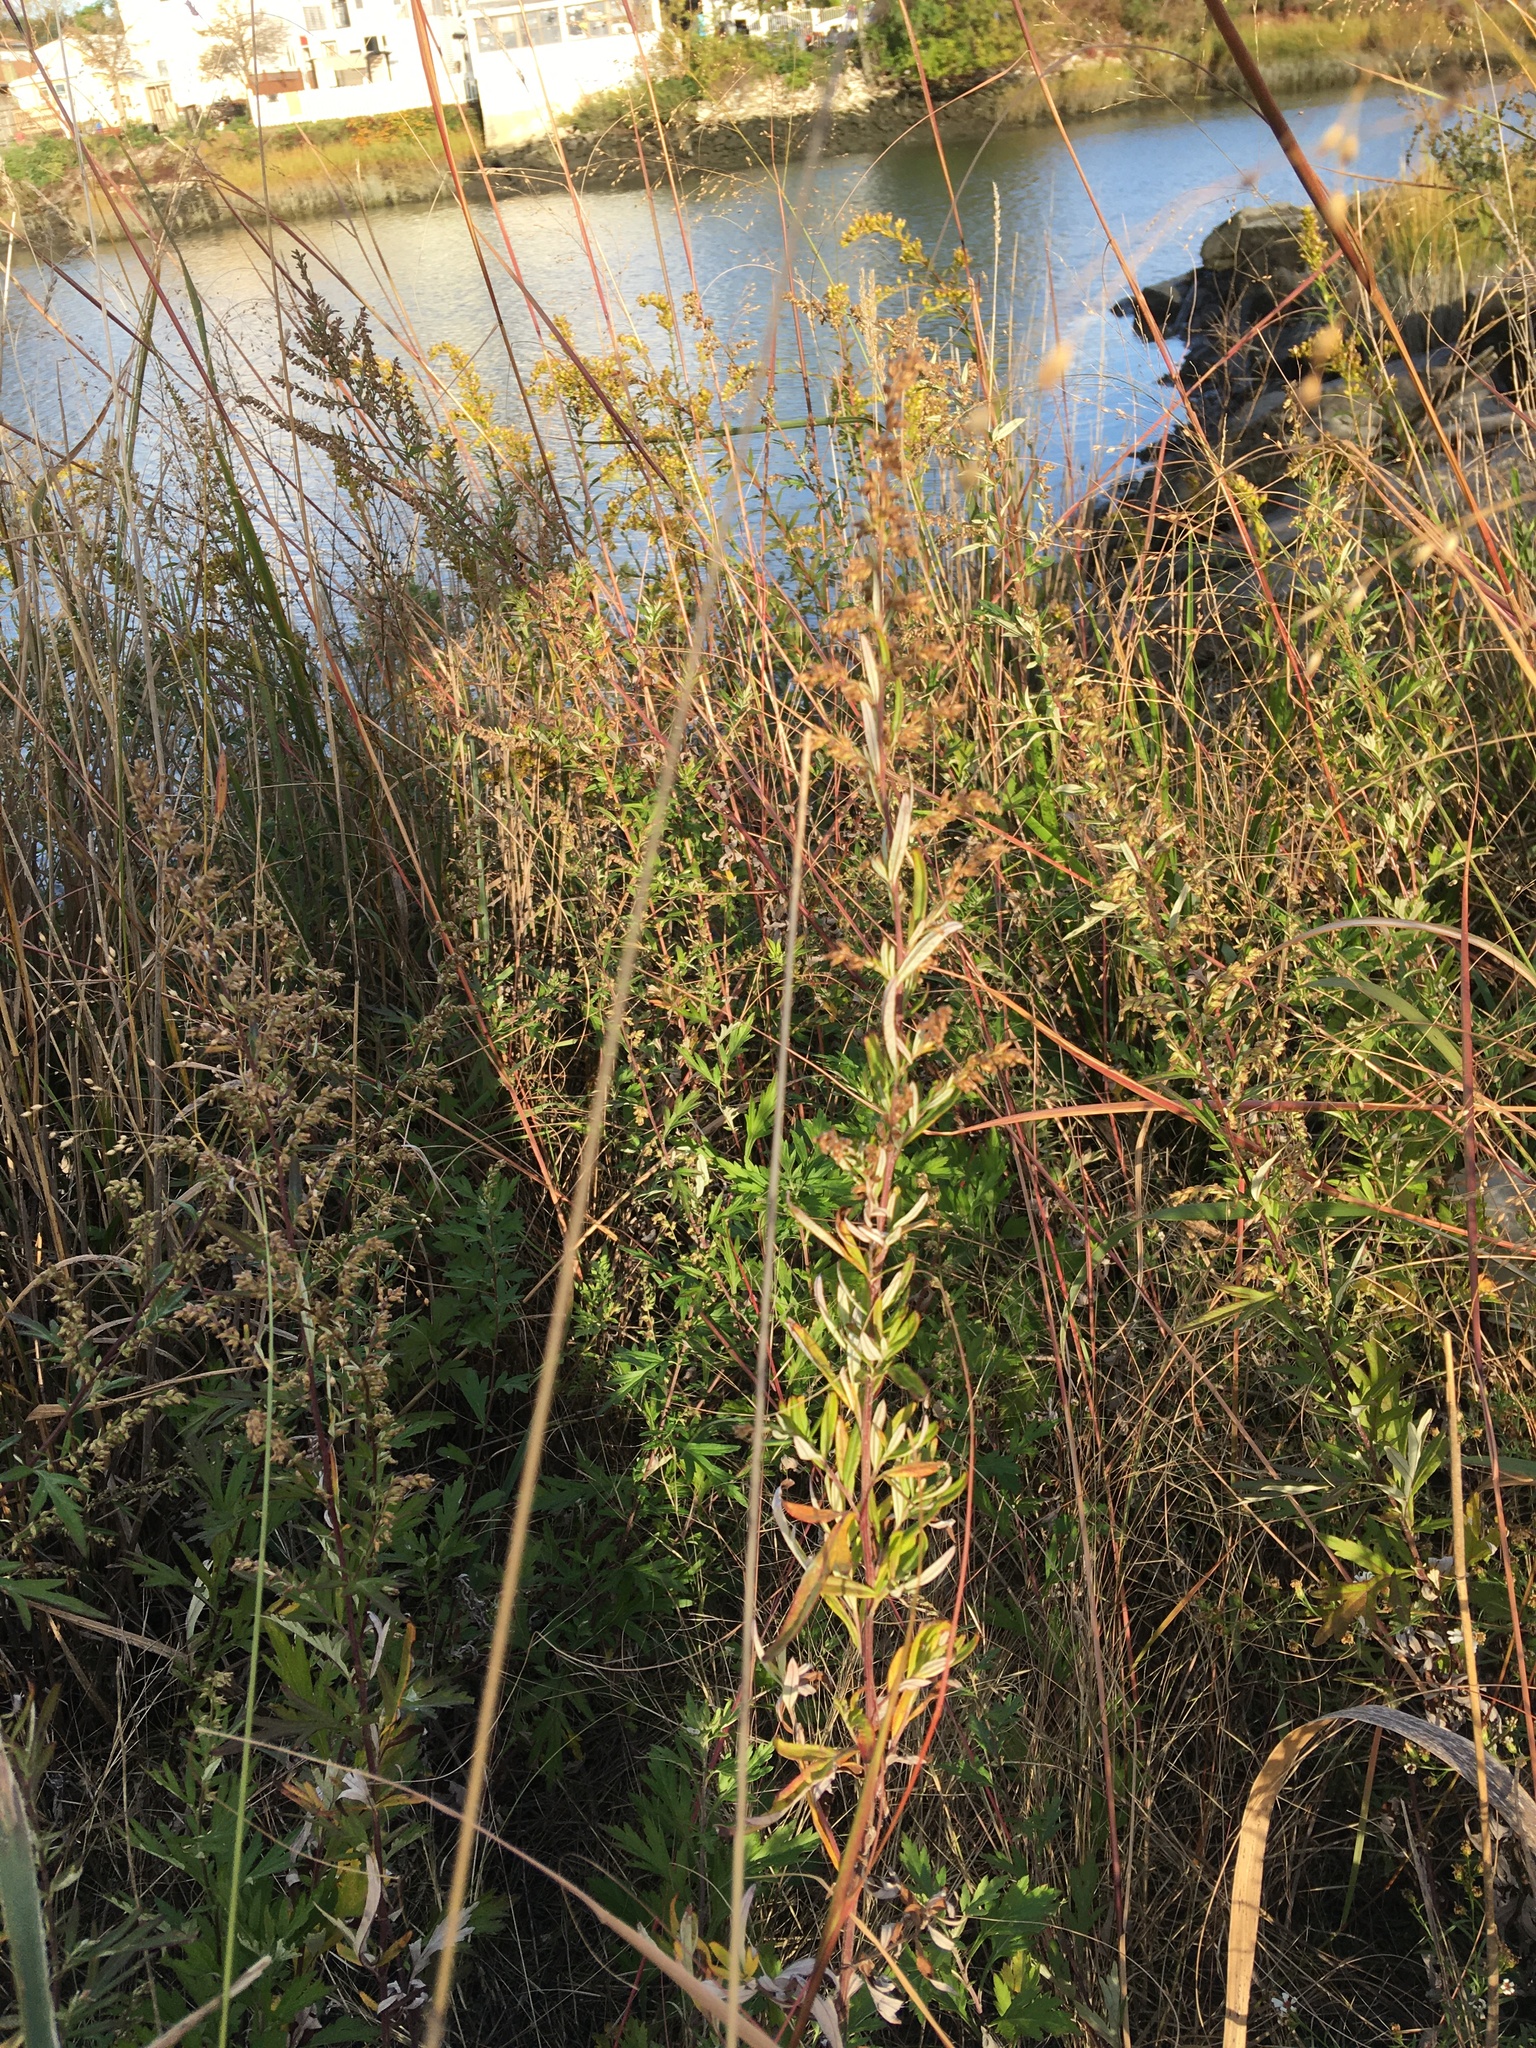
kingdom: Plantae
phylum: Tracheophyta
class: Magnoliopsida
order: Asterales
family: Asteraceae
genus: Artemisia
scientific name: Artemisia vulgaris
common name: Mugwort
